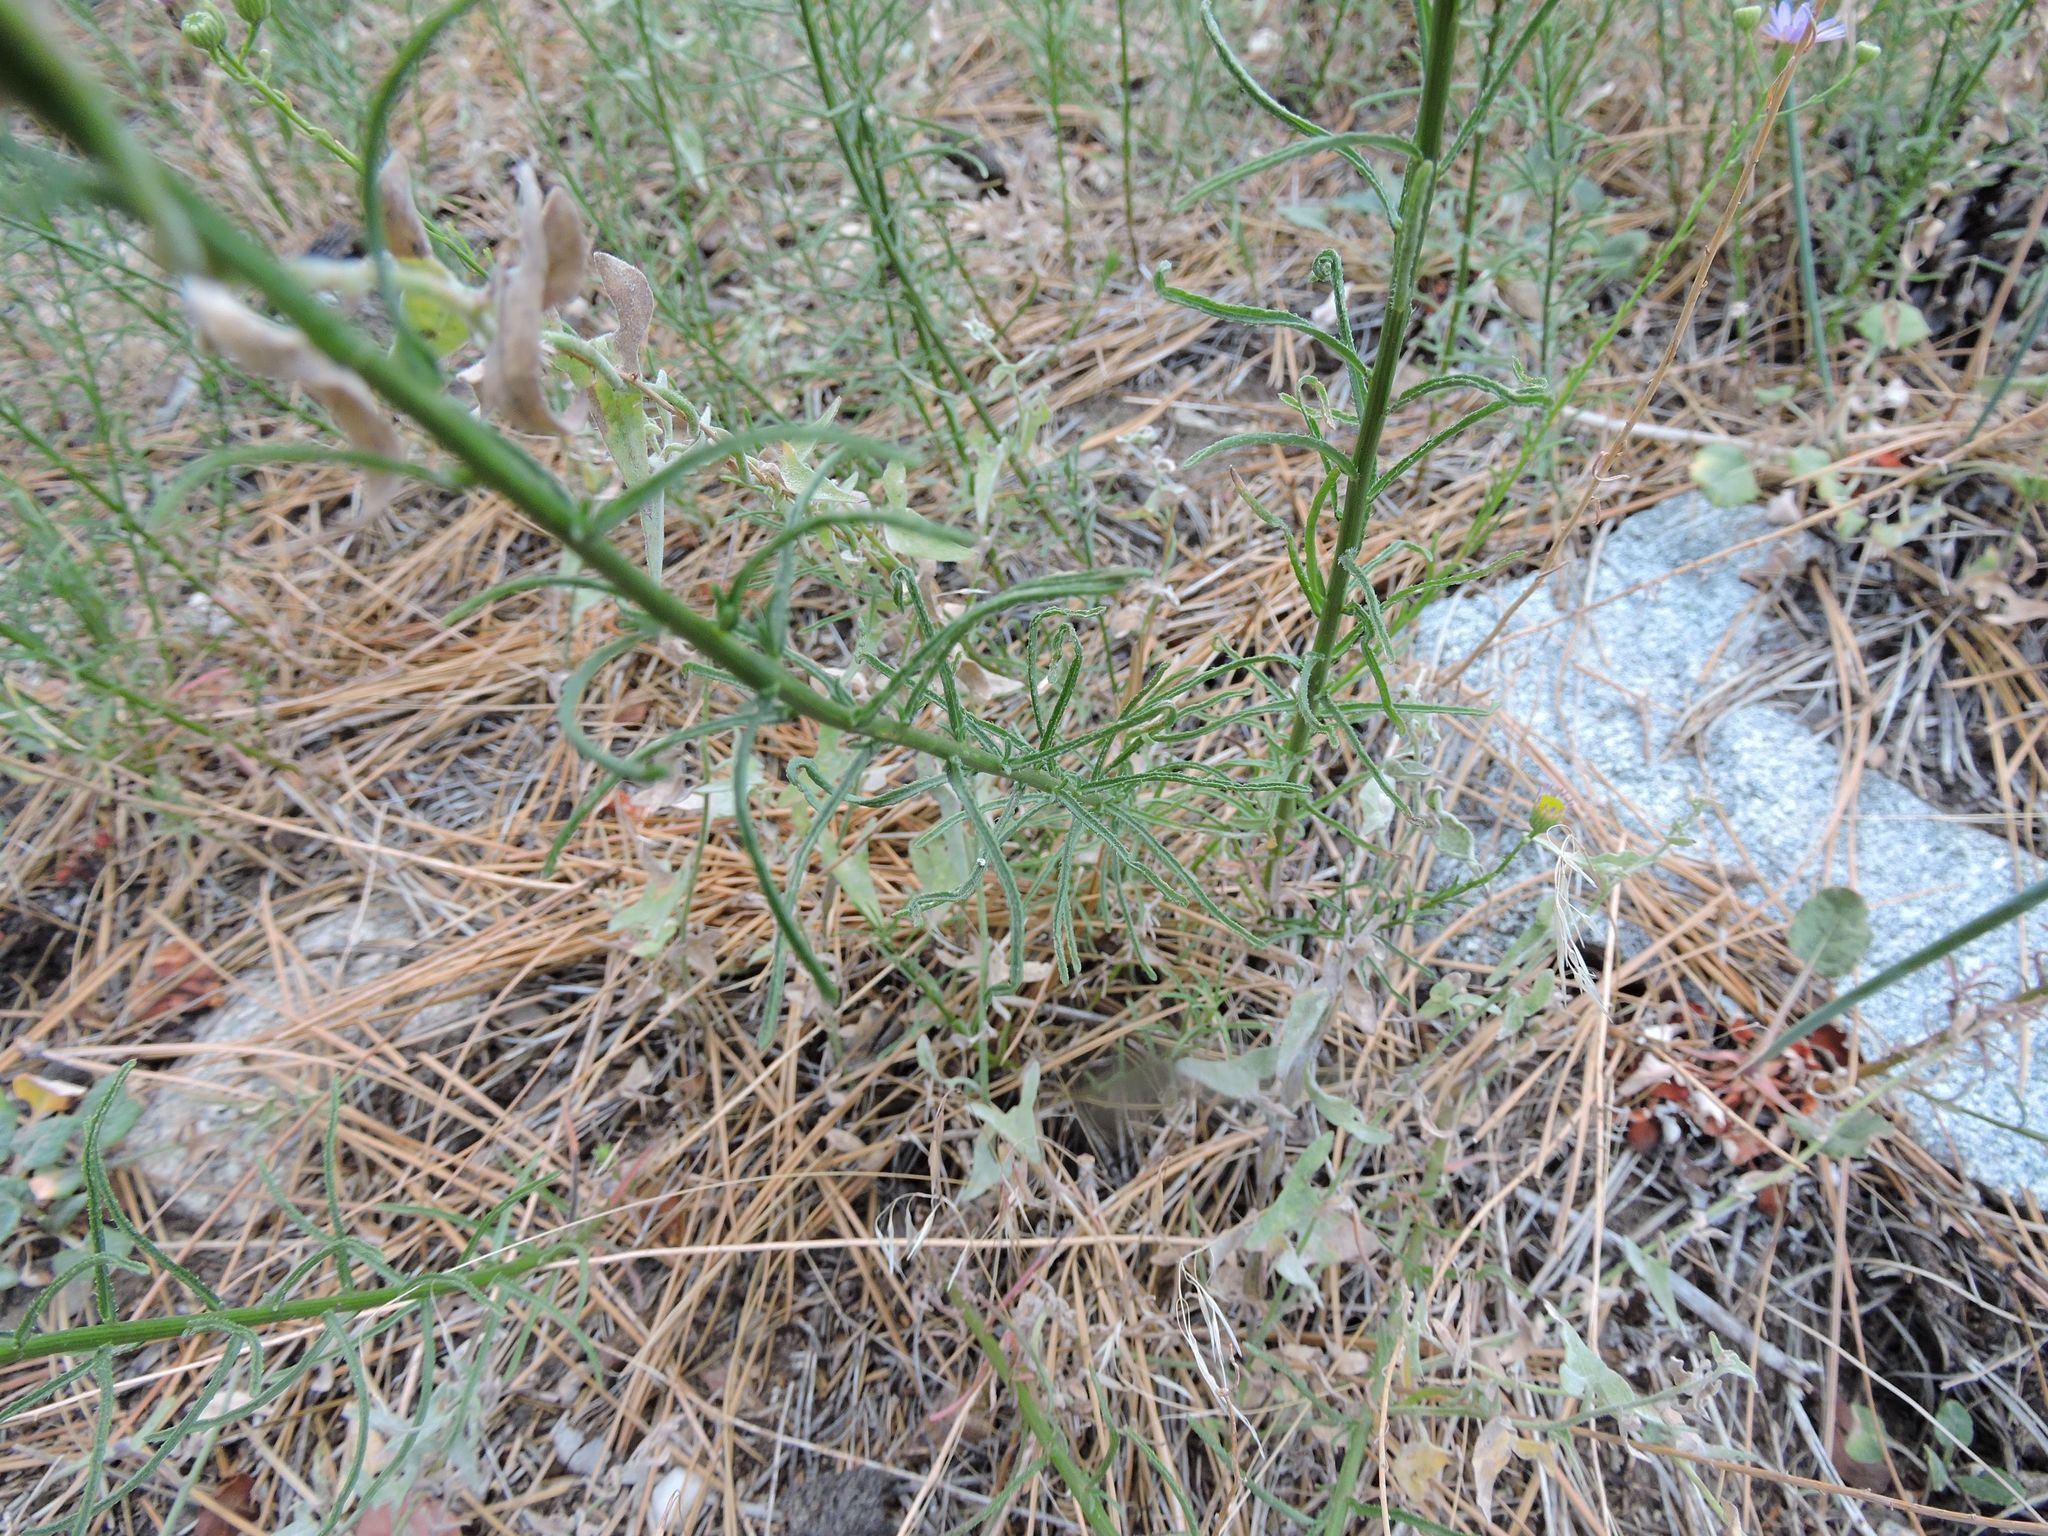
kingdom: Plantae
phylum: Tracheophyta
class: Magnoliopsida
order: Asterales
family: Asteraceae
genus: Erigeron
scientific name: Erigeron foliosus
